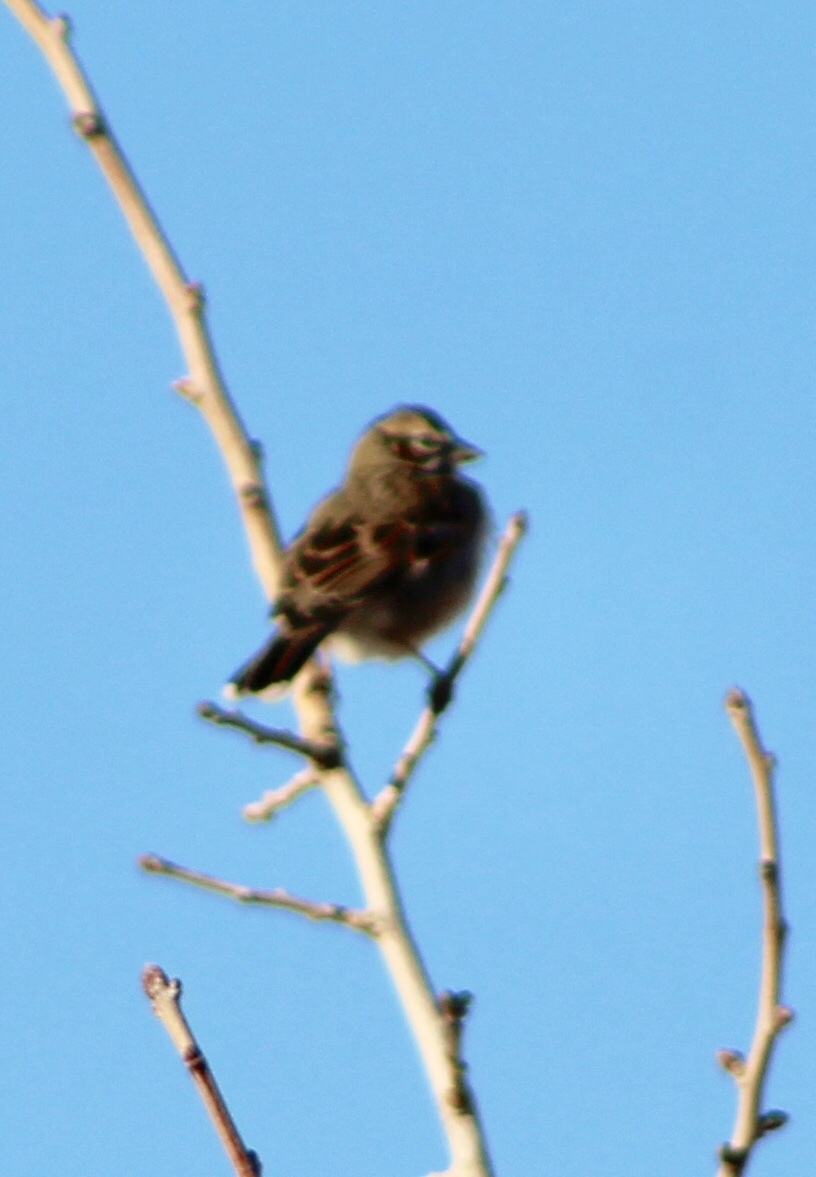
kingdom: Animalia
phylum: Chordata
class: Aves
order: Passeriformes
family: Passerellidae
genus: Chondestes
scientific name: Chondestes grammacus
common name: Lark sparrow
